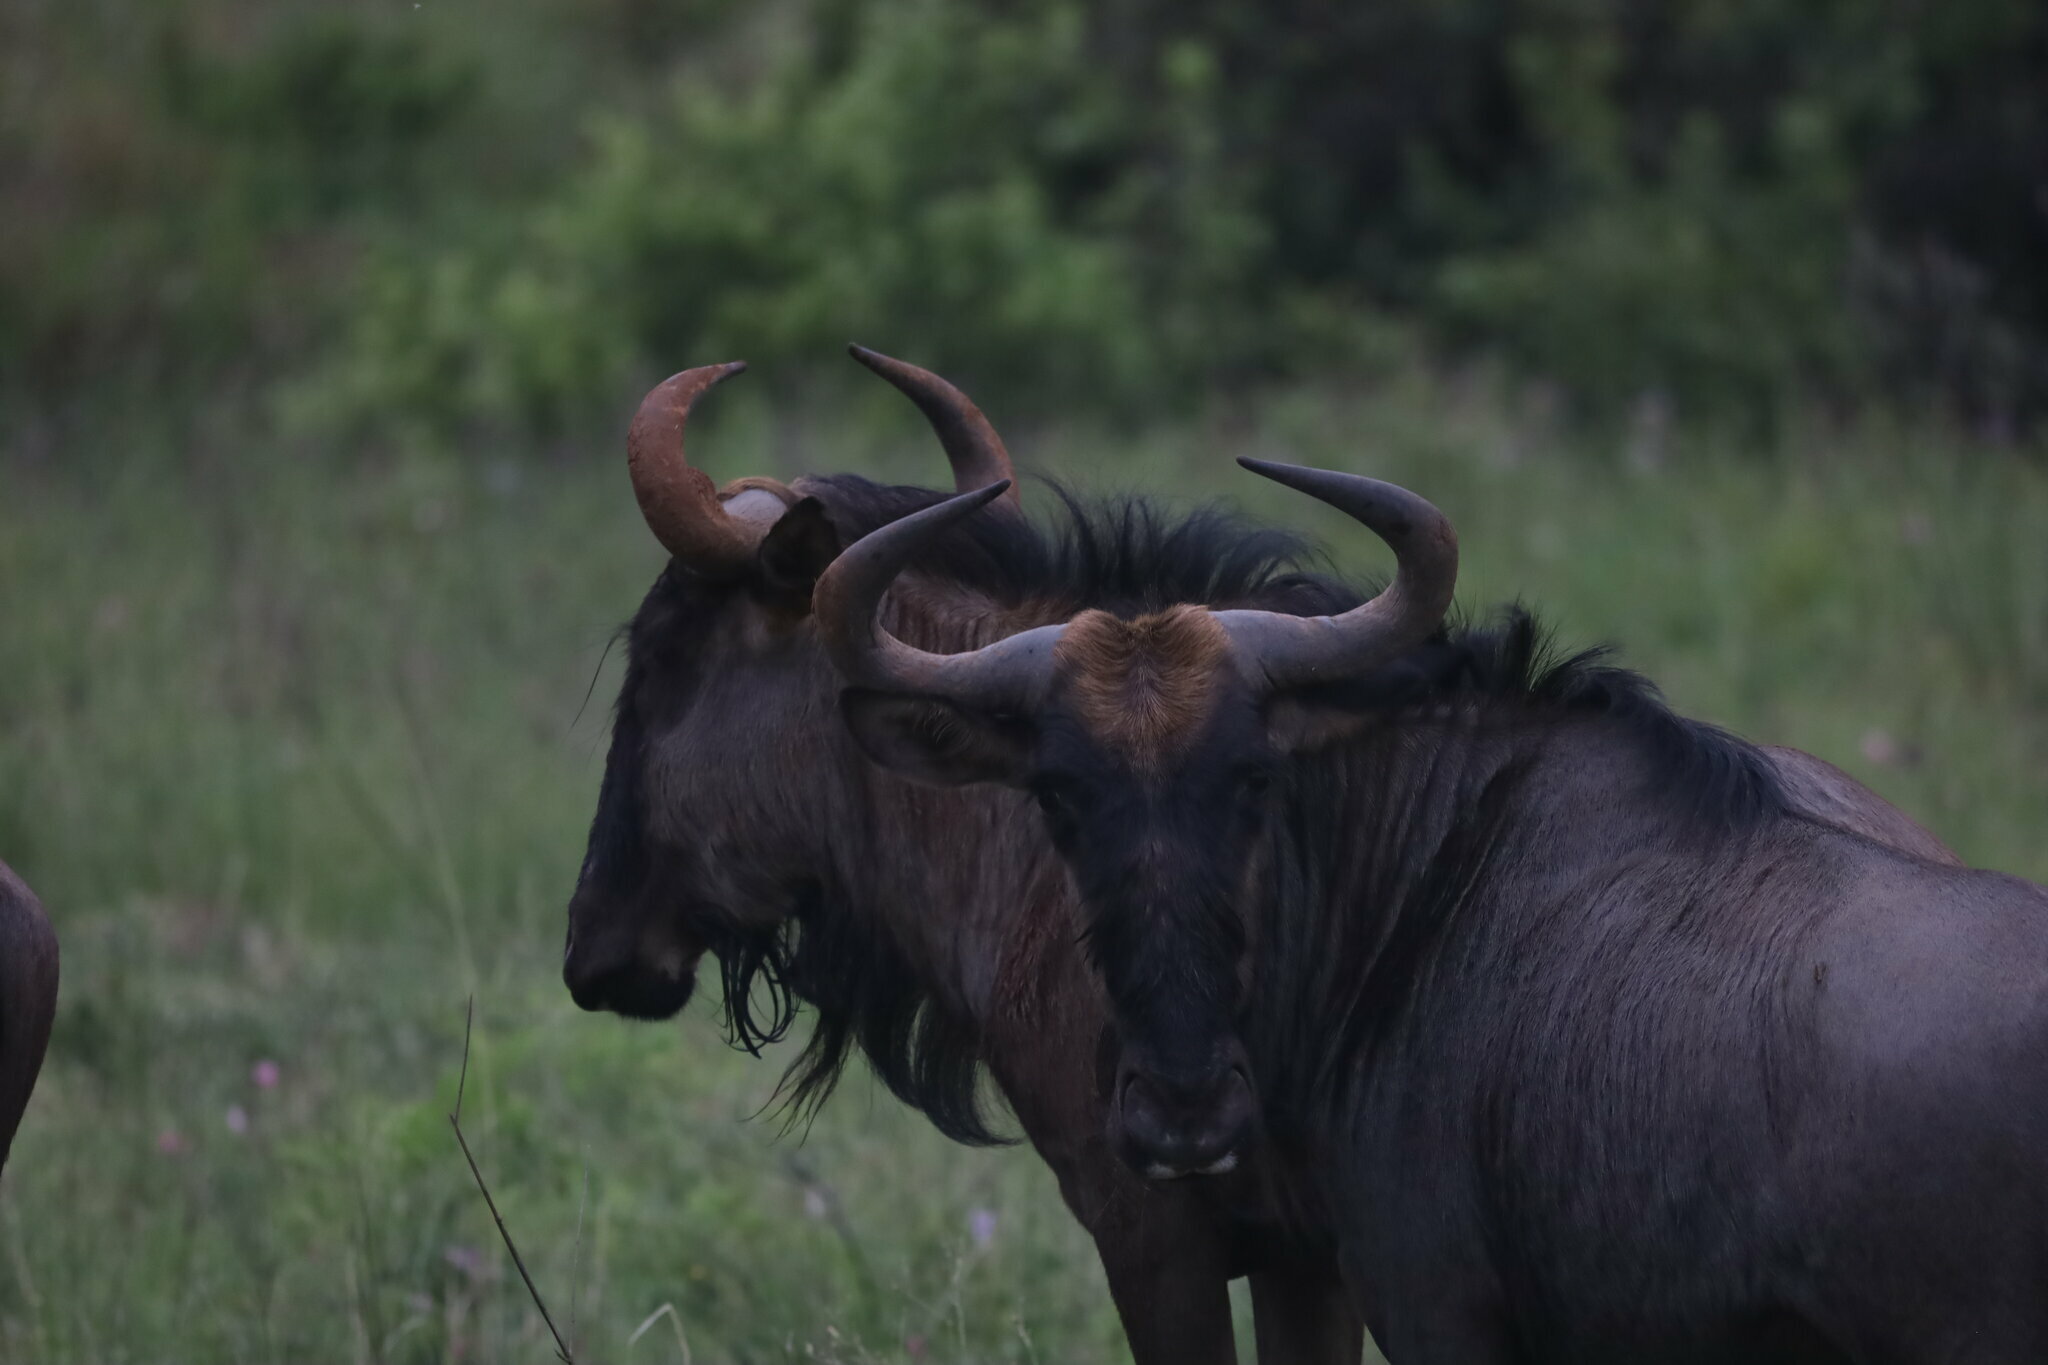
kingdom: Animalia
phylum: Chordata
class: Mammalia
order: Artiodactyla
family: Bovidae
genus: Connochaetes
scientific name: Connochaetes taurinus
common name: Blue wildebeest
